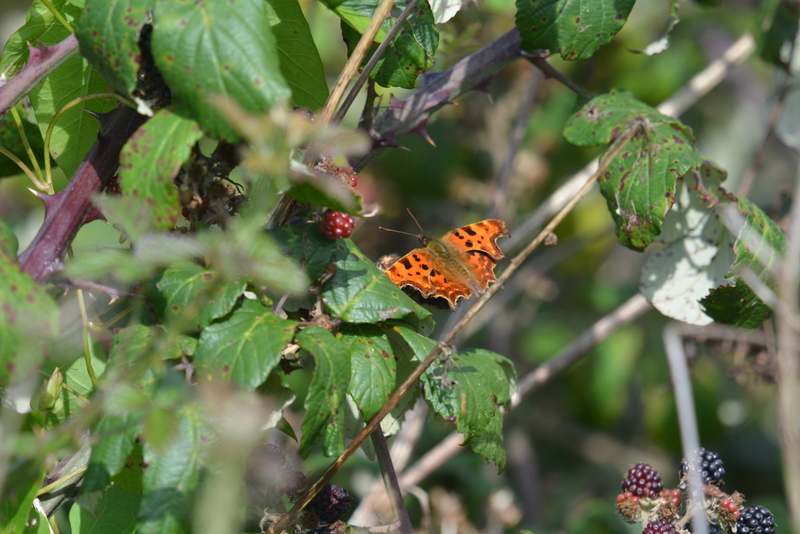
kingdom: Animalia
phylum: Arthropoda
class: Insecta
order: Lepidoptera
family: Nymphalidae
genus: Polygonia
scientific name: Polygonia c-album
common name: Comma
